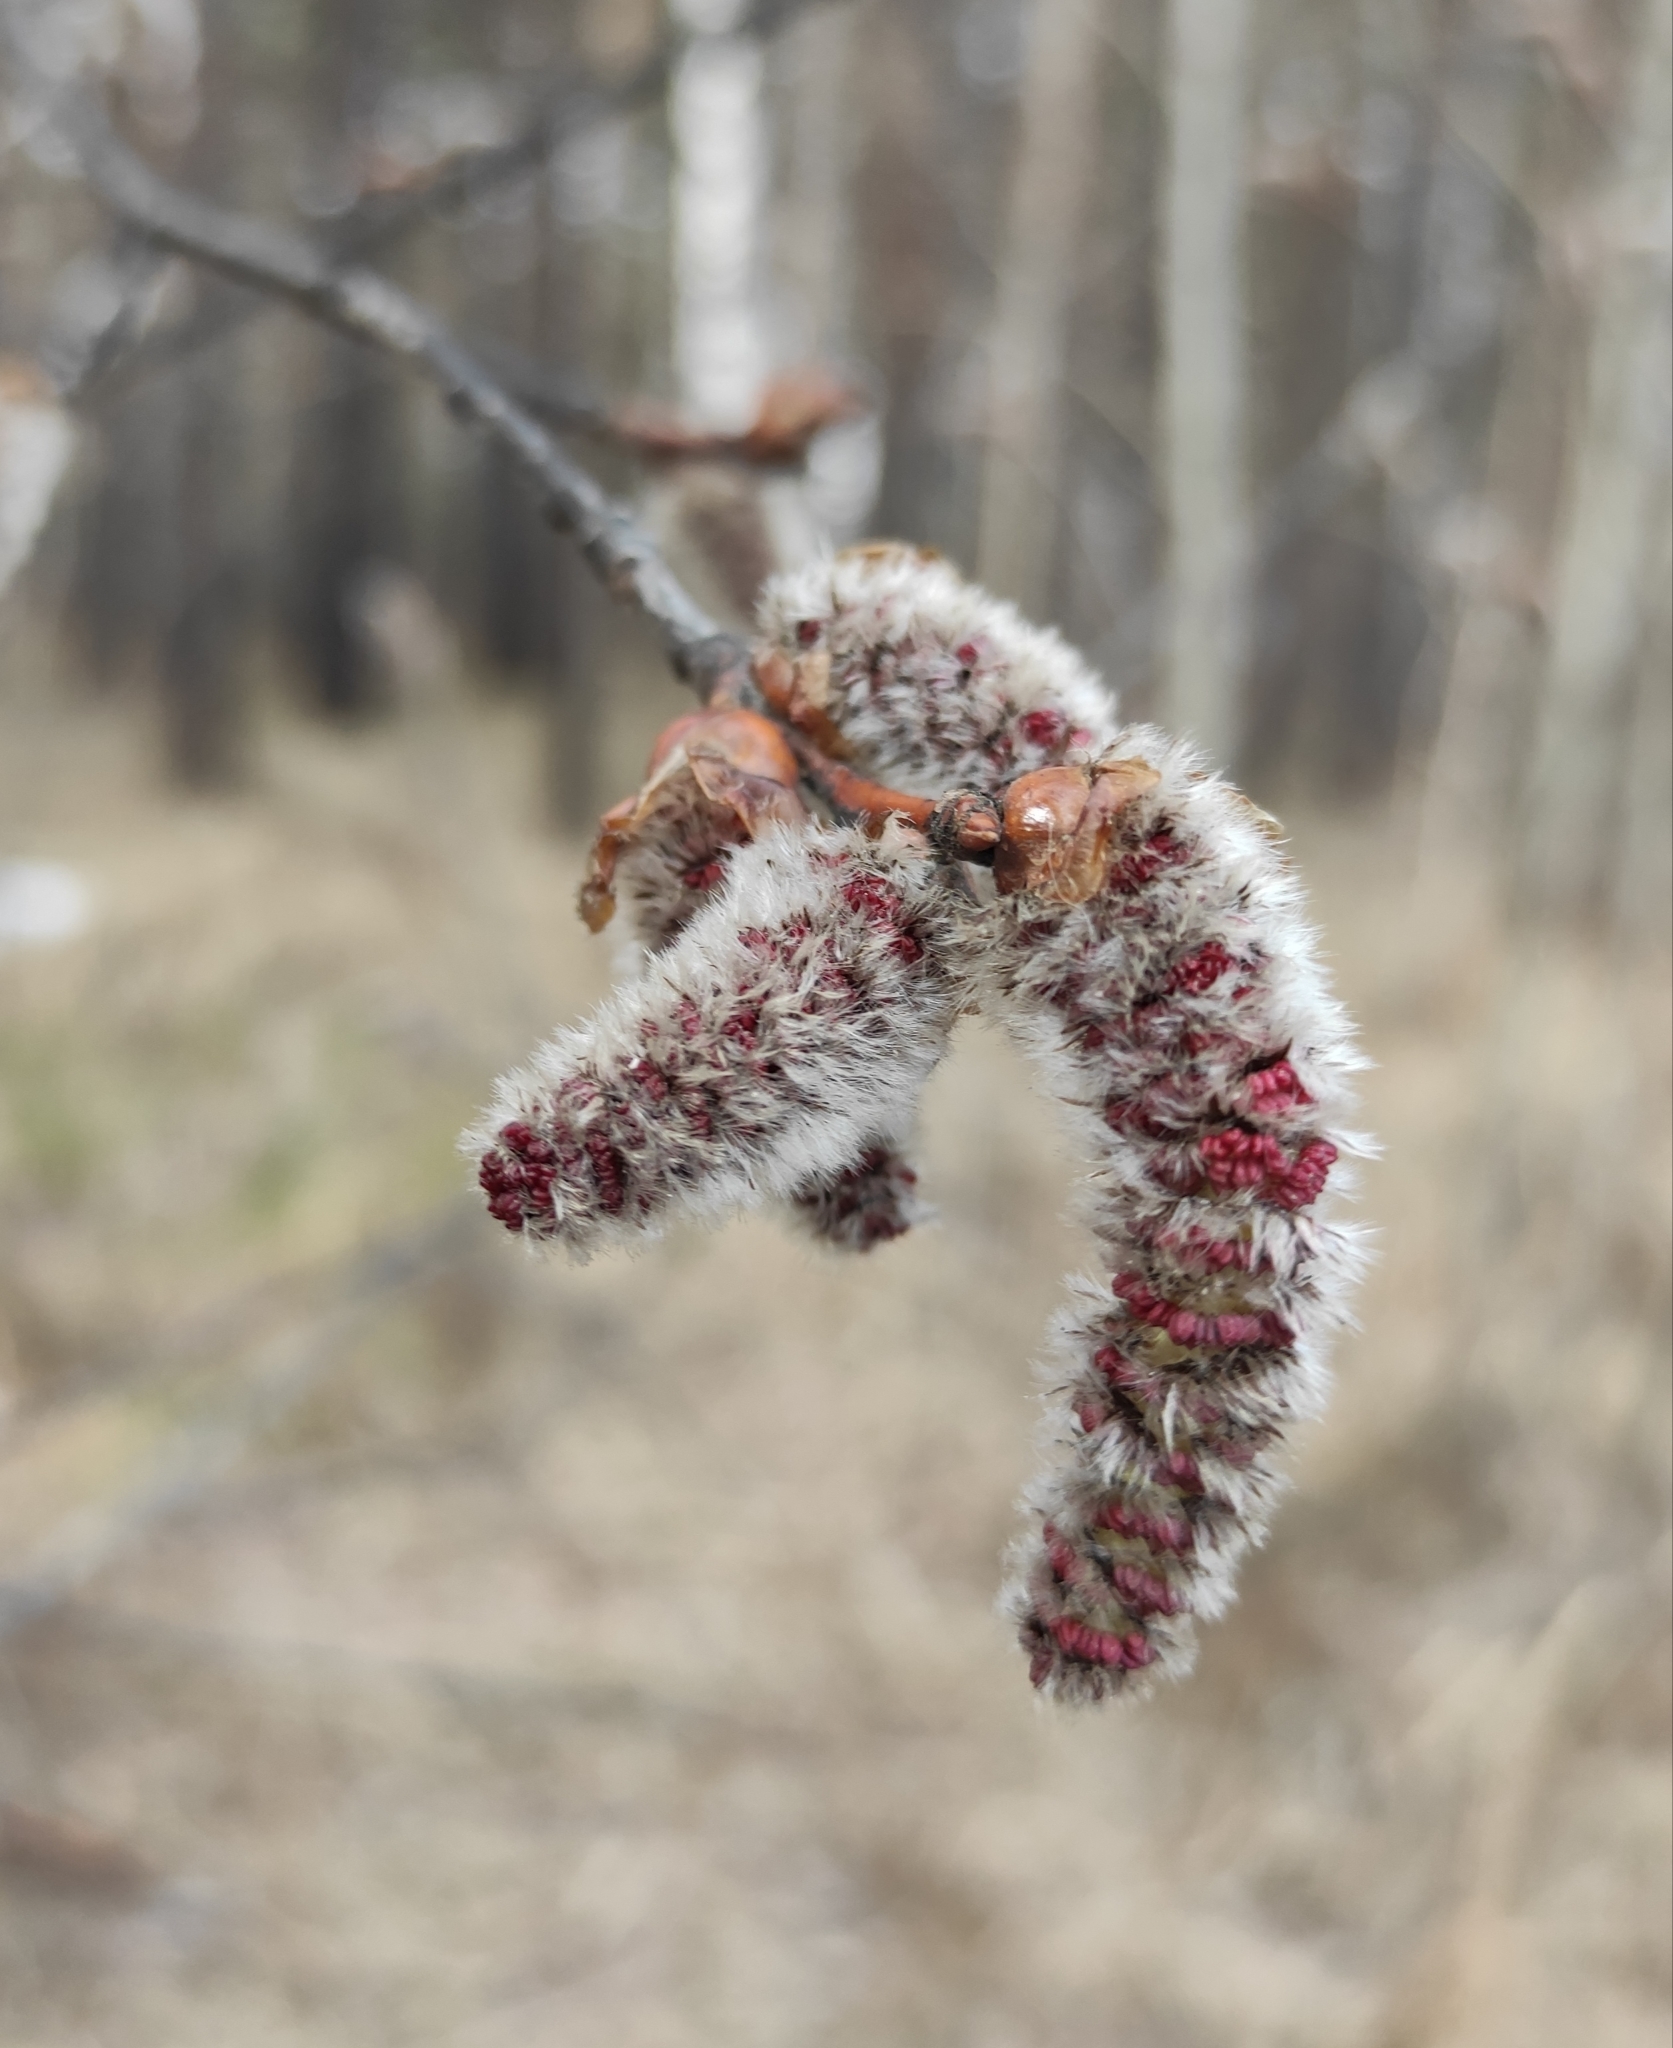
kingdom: Plantae
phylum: Tracheophyta
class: Magnoliopsida
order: Malpighiales
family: Salicaceae
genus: Populus
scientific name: Populus tremula
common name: European aspen
